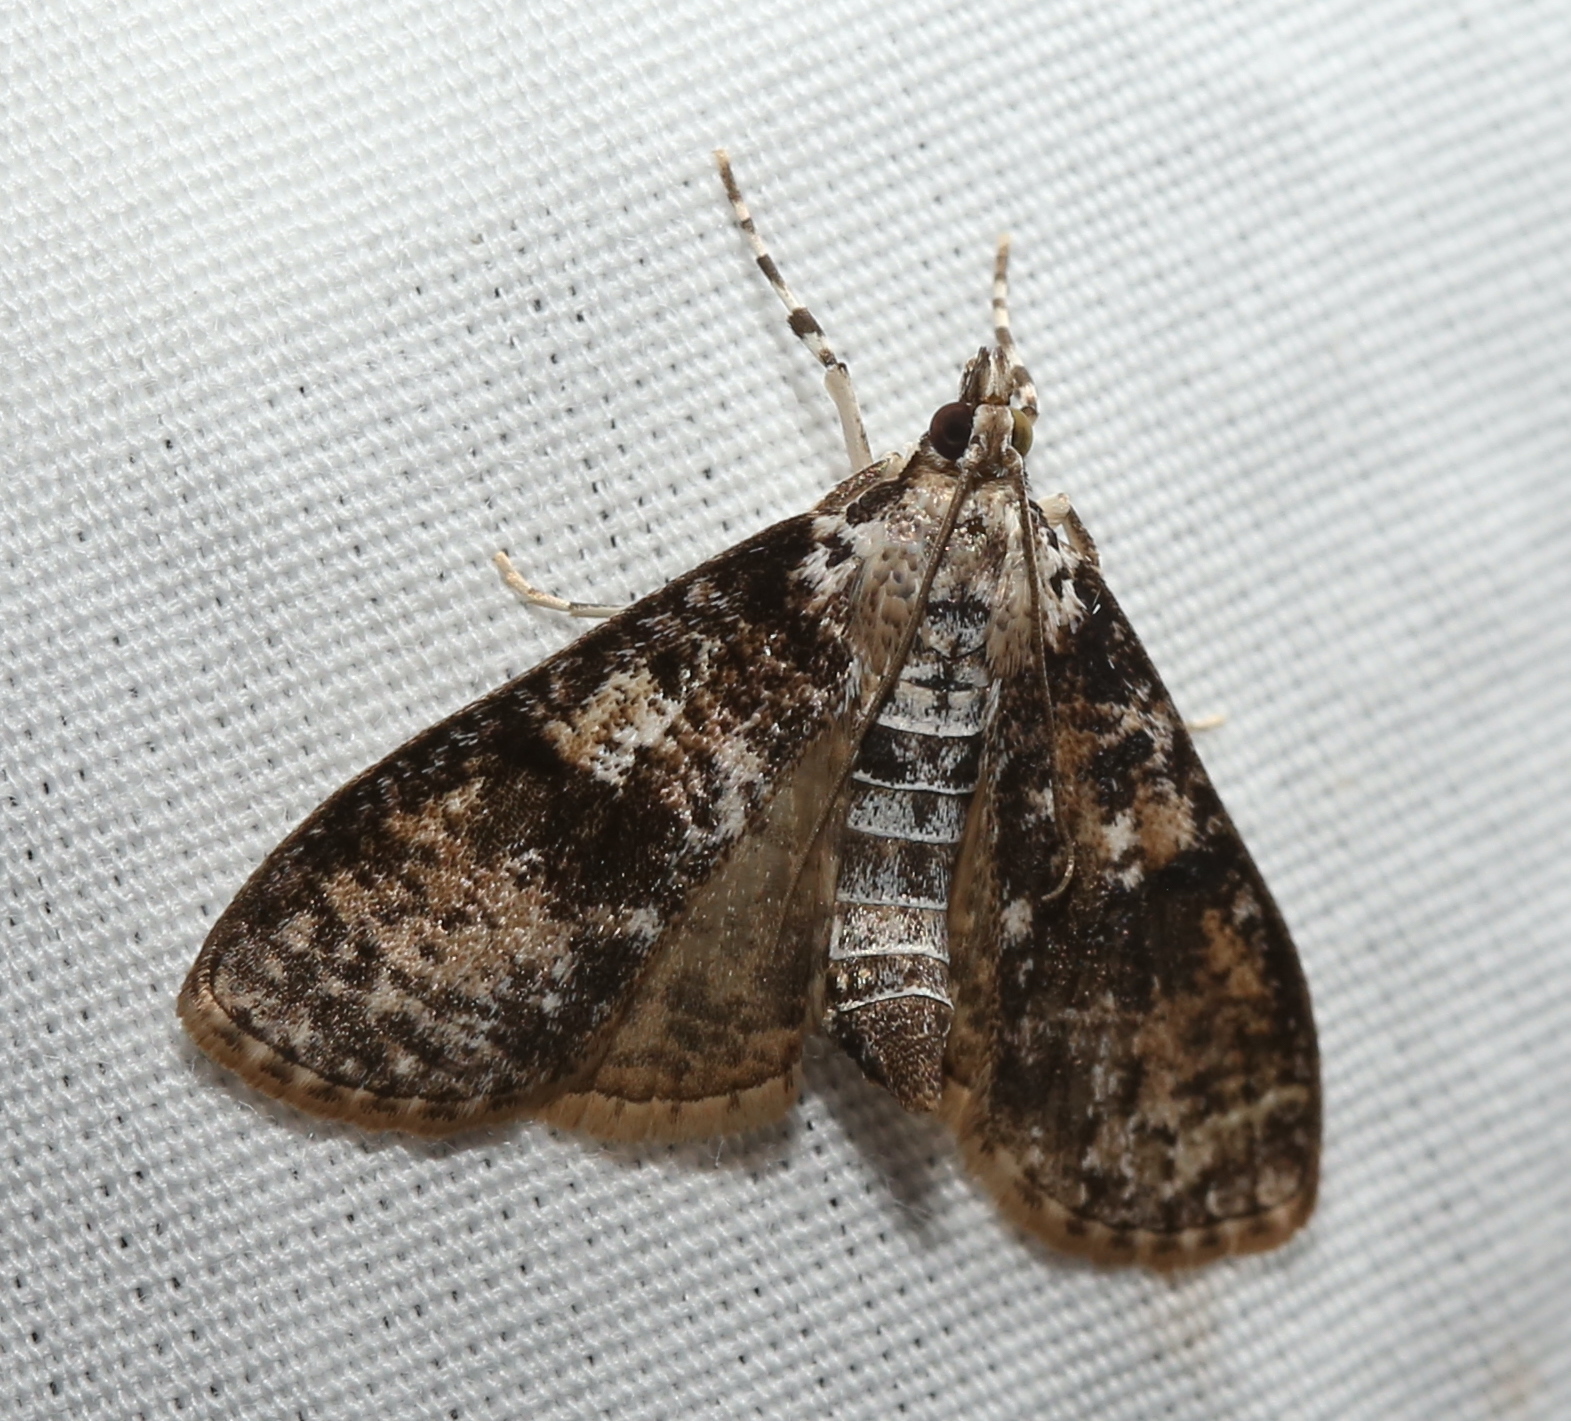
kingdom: Animalia
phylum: Arthropoda
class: Insecta
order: Lepidoptera
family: Crambidae
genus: Palpita
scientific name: Palpita magniferalis
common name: Splendid palpita moth
